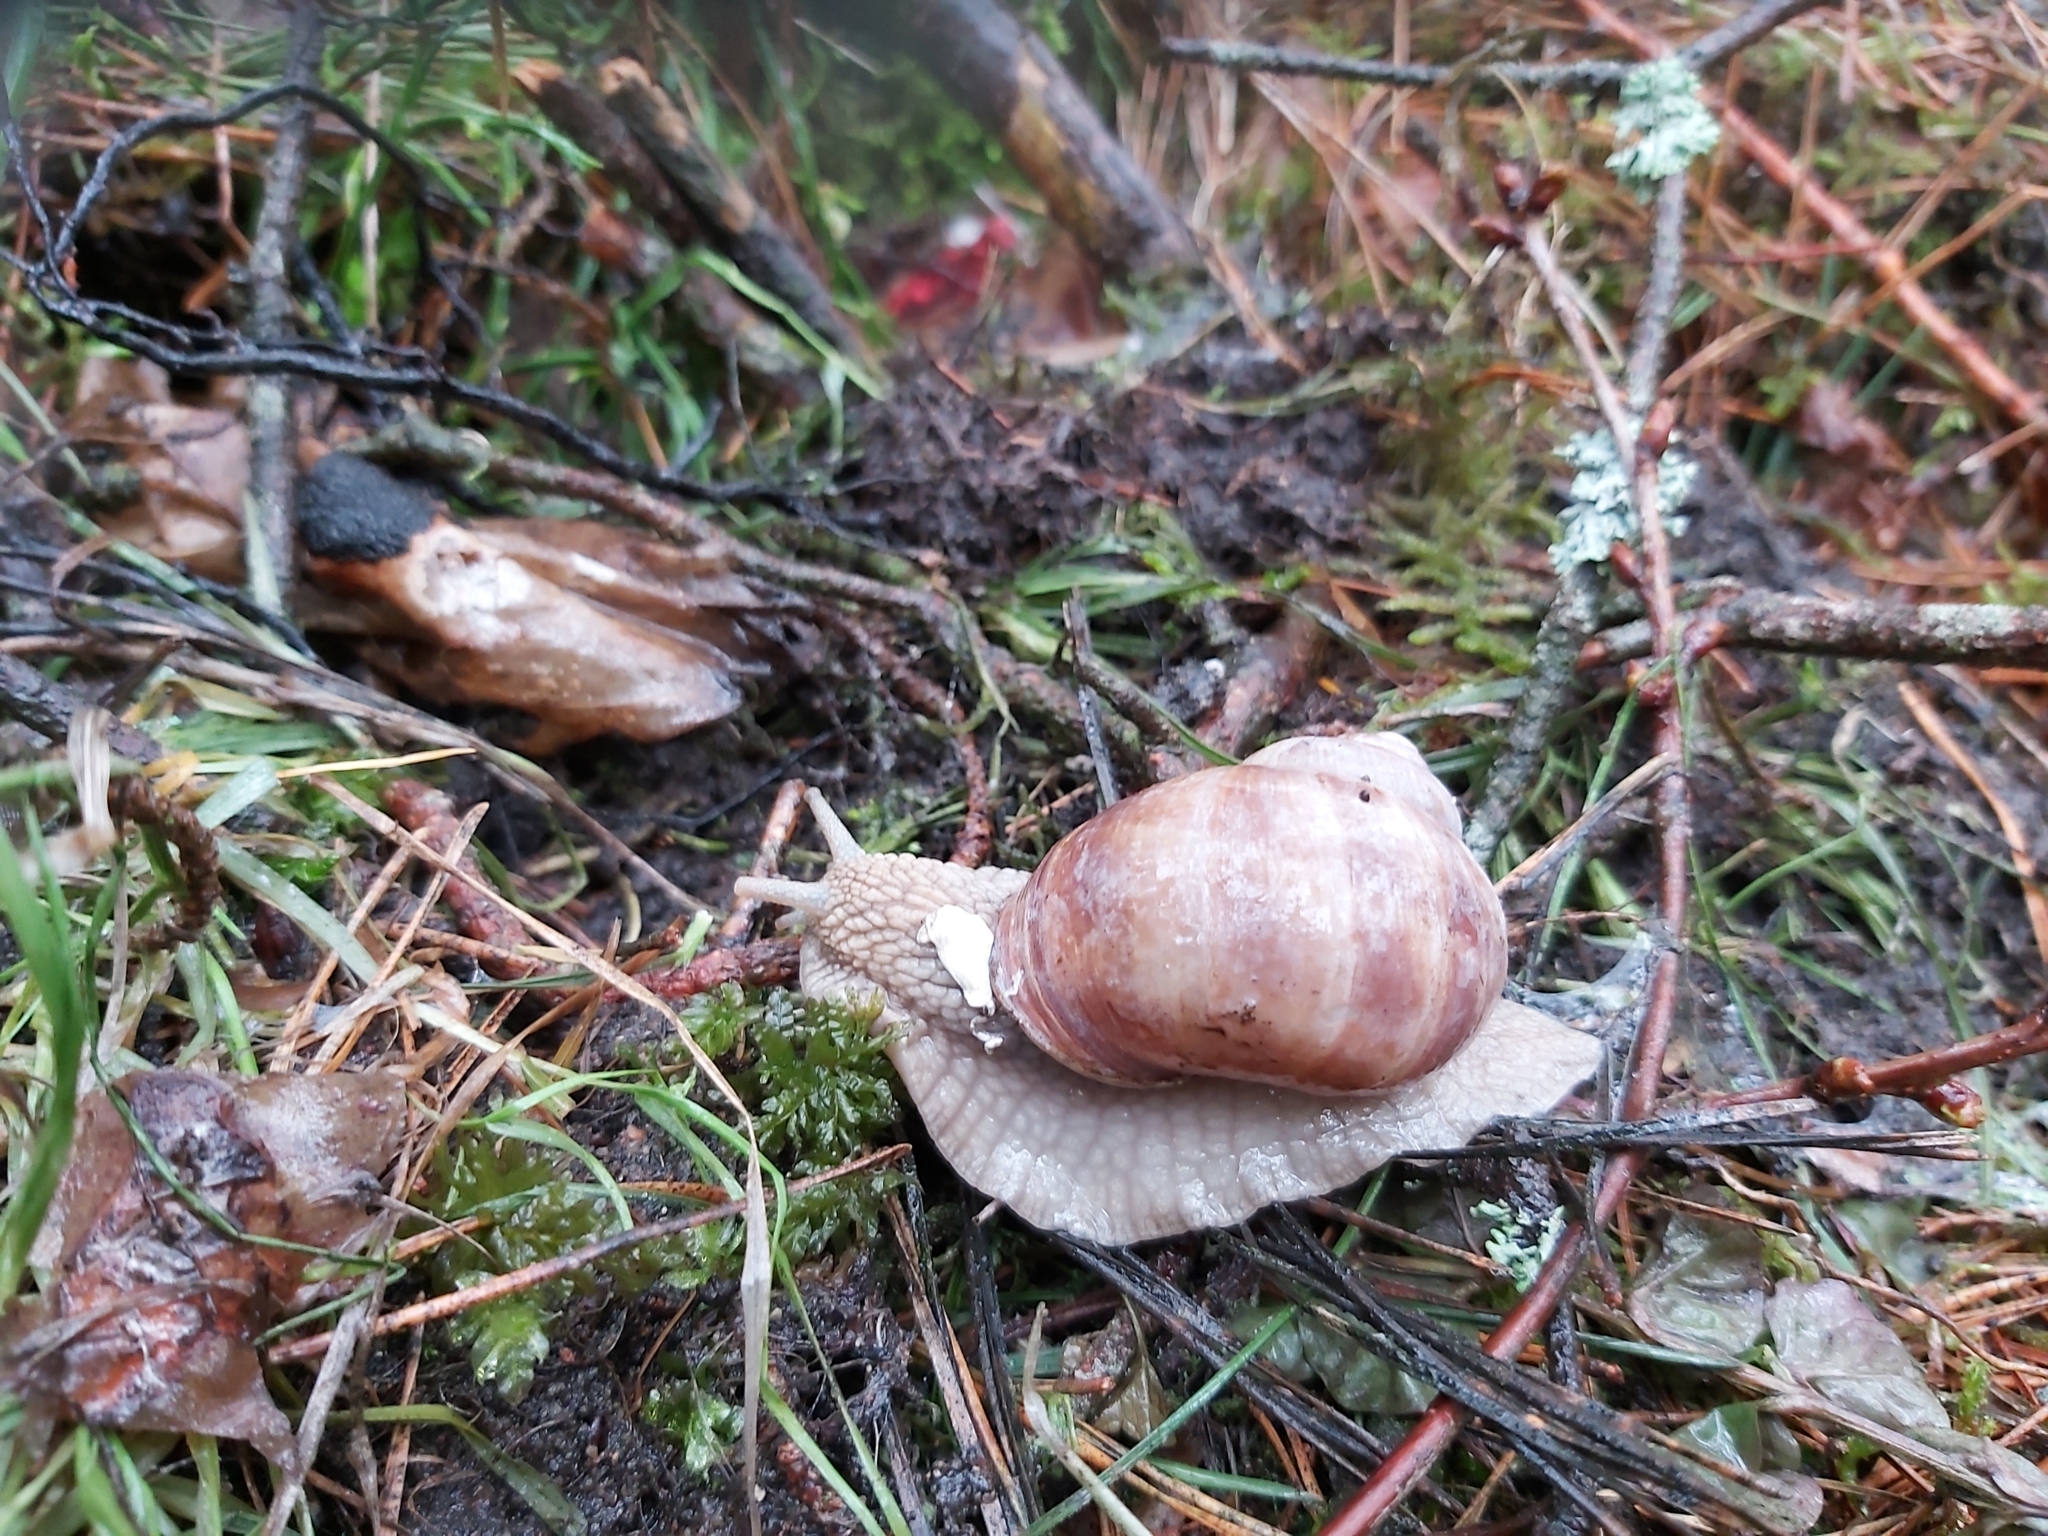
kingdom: Animalia
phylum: Mollusca
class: Gastropoda
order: Stylommatophora
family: Helicidae
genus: Helix
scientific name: Helix pomatia
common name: Roman snail
